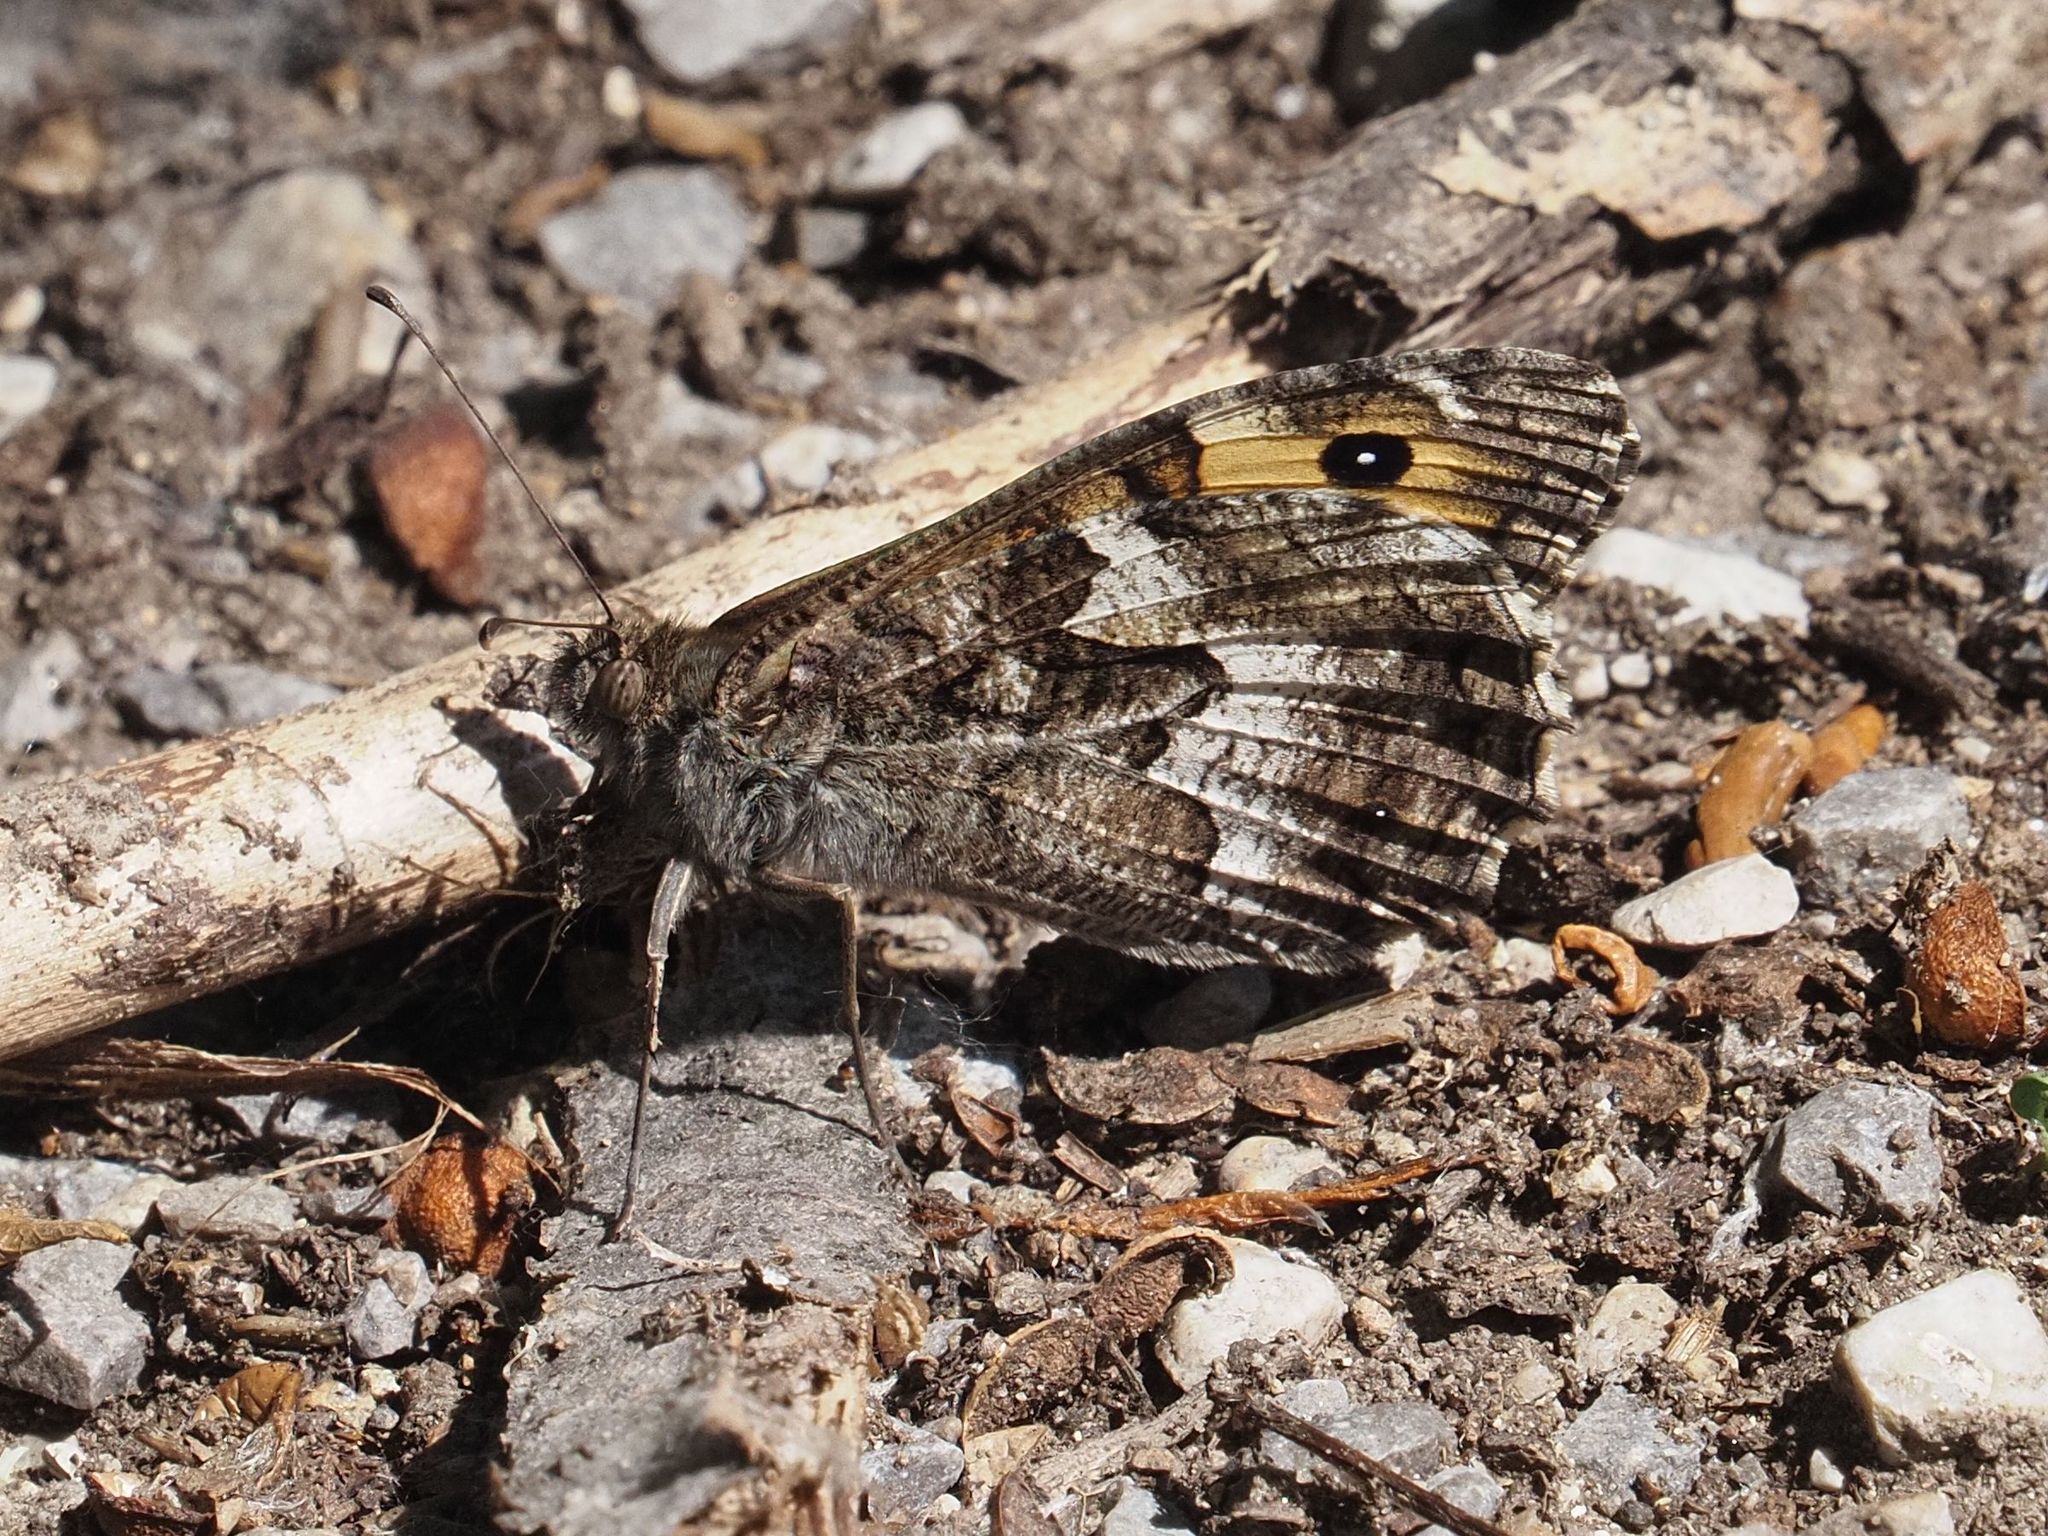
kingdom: Animalia
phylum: Arthropoda
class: Insecta
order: Lepidoptera
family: Nymphalidae
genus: Hipparchia
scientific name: Hipparchia semele
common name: Grayling
